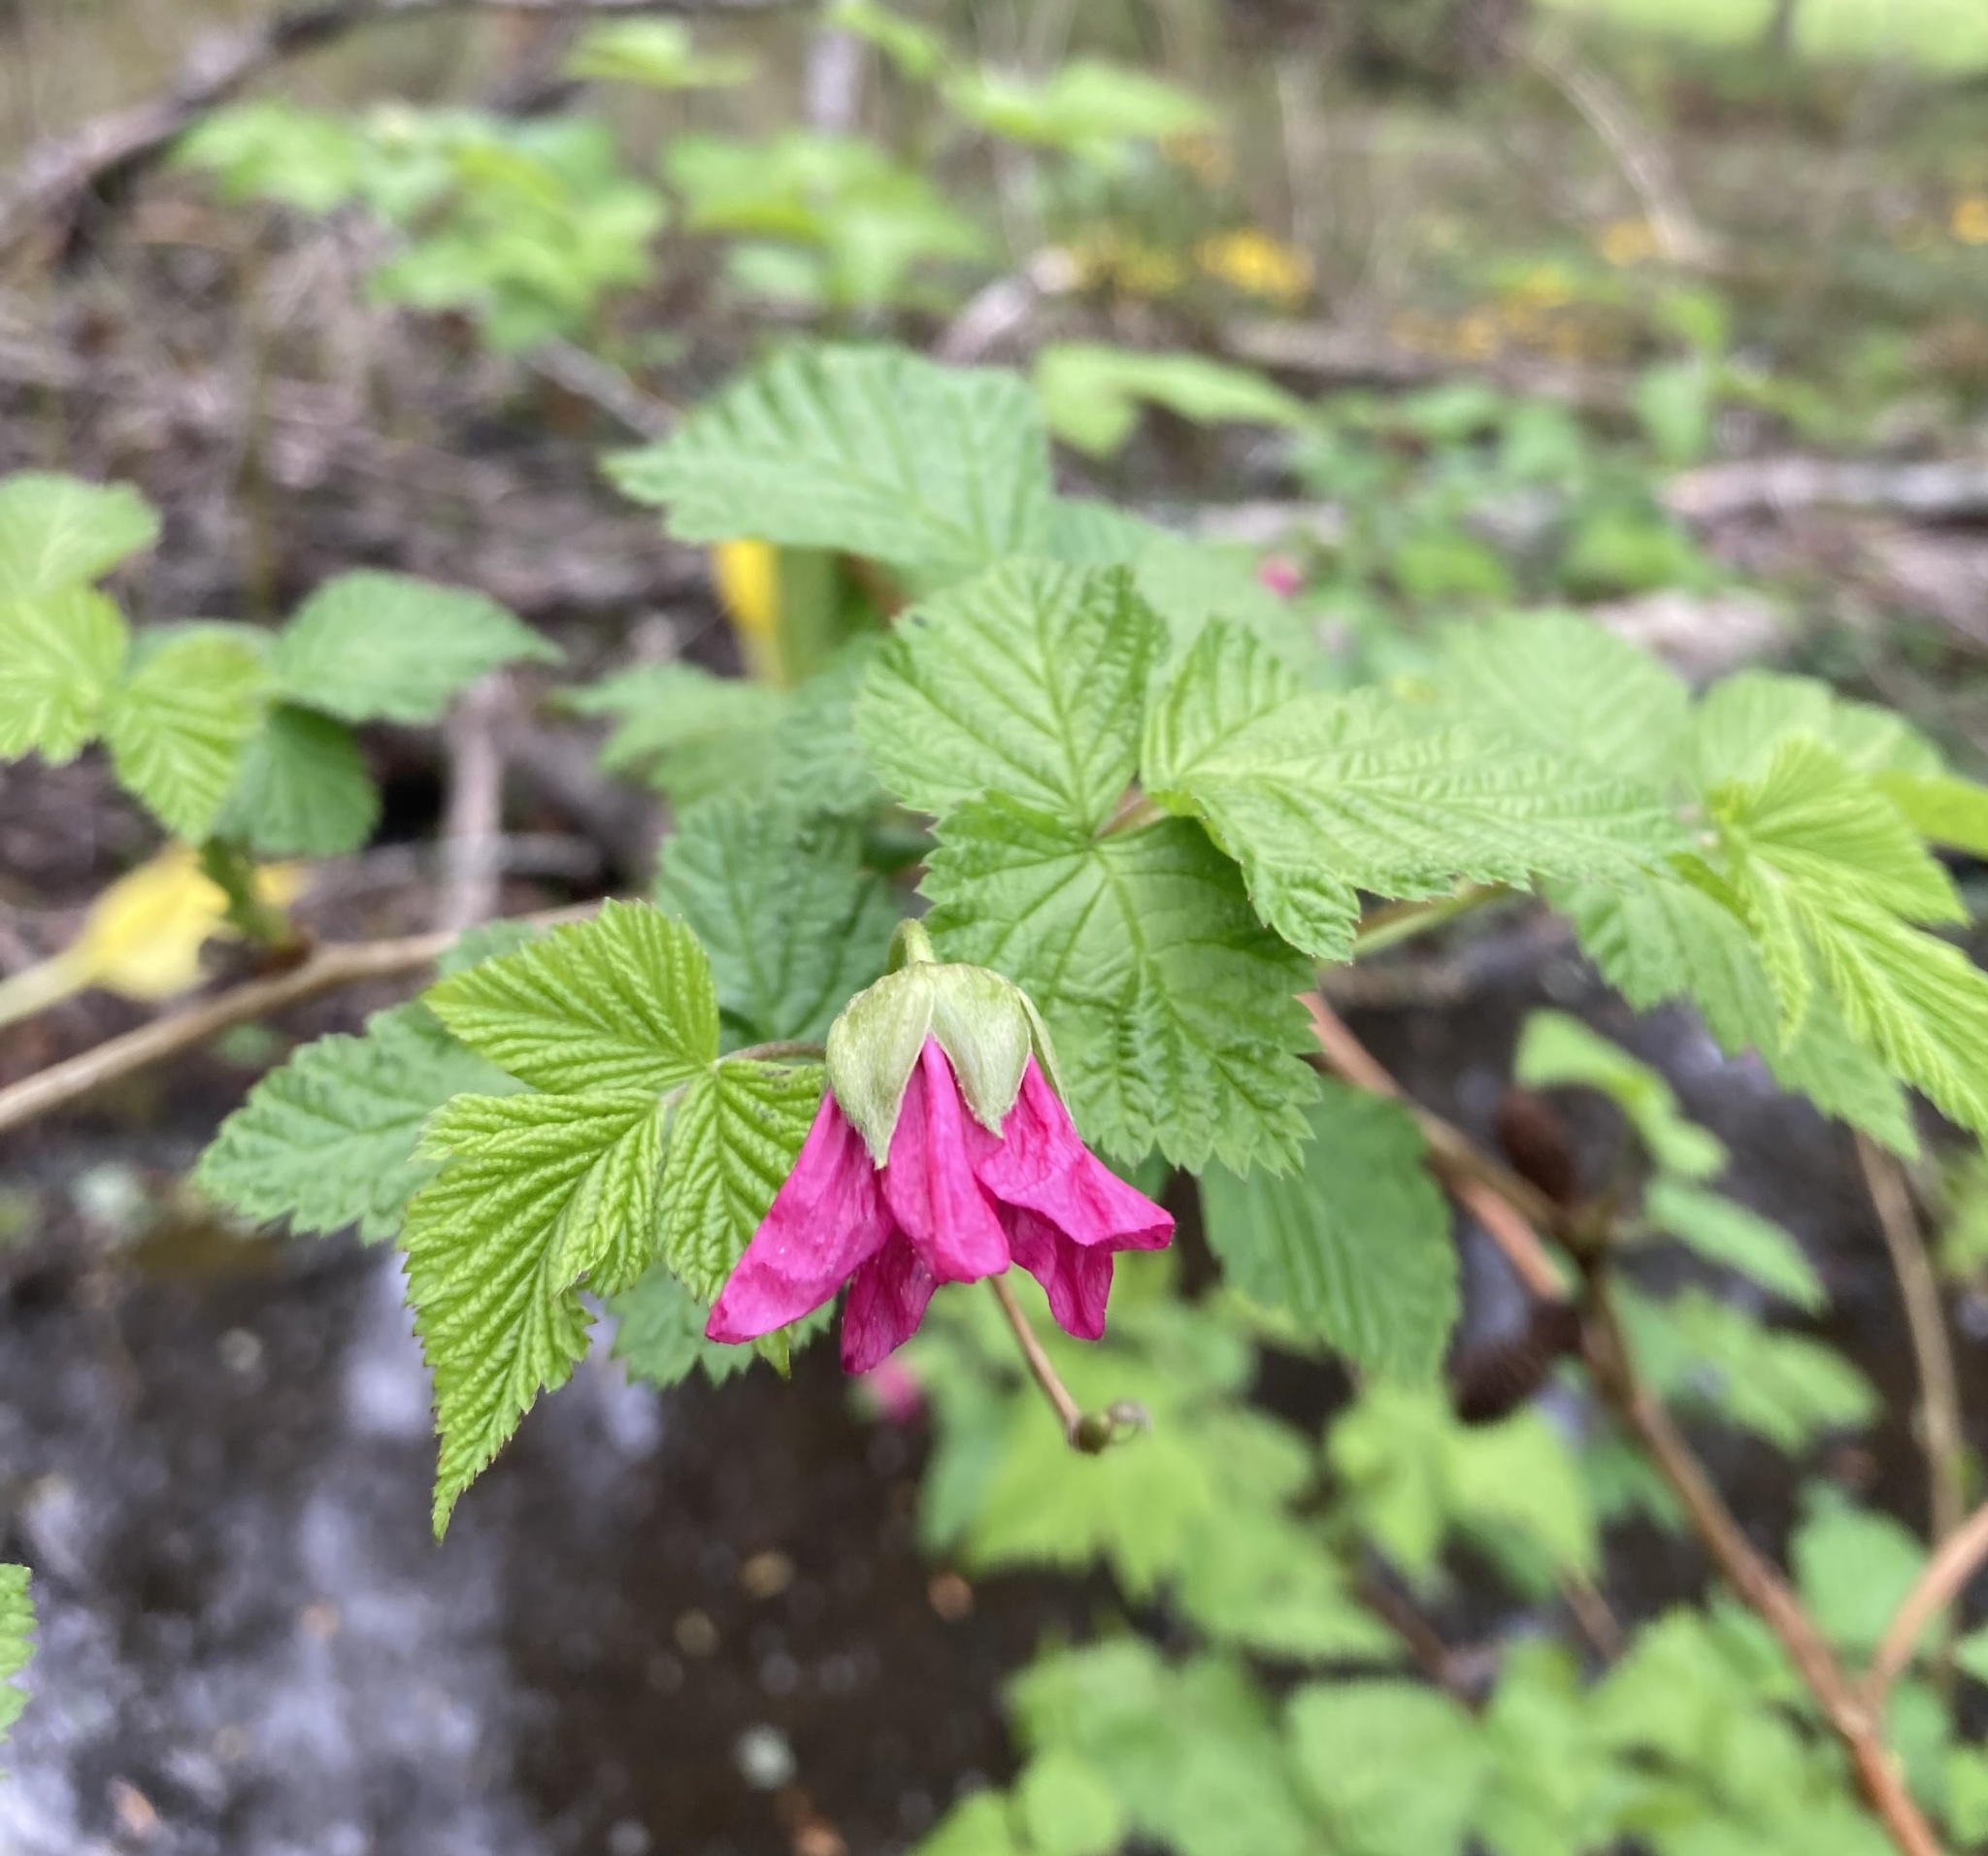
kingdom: Plantae
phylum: Tracheophyta
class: Magnoliopsida
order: Rosales
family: Rosaceae
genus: Rubus
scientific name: Rubus spectabilis
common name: Salmonberry
